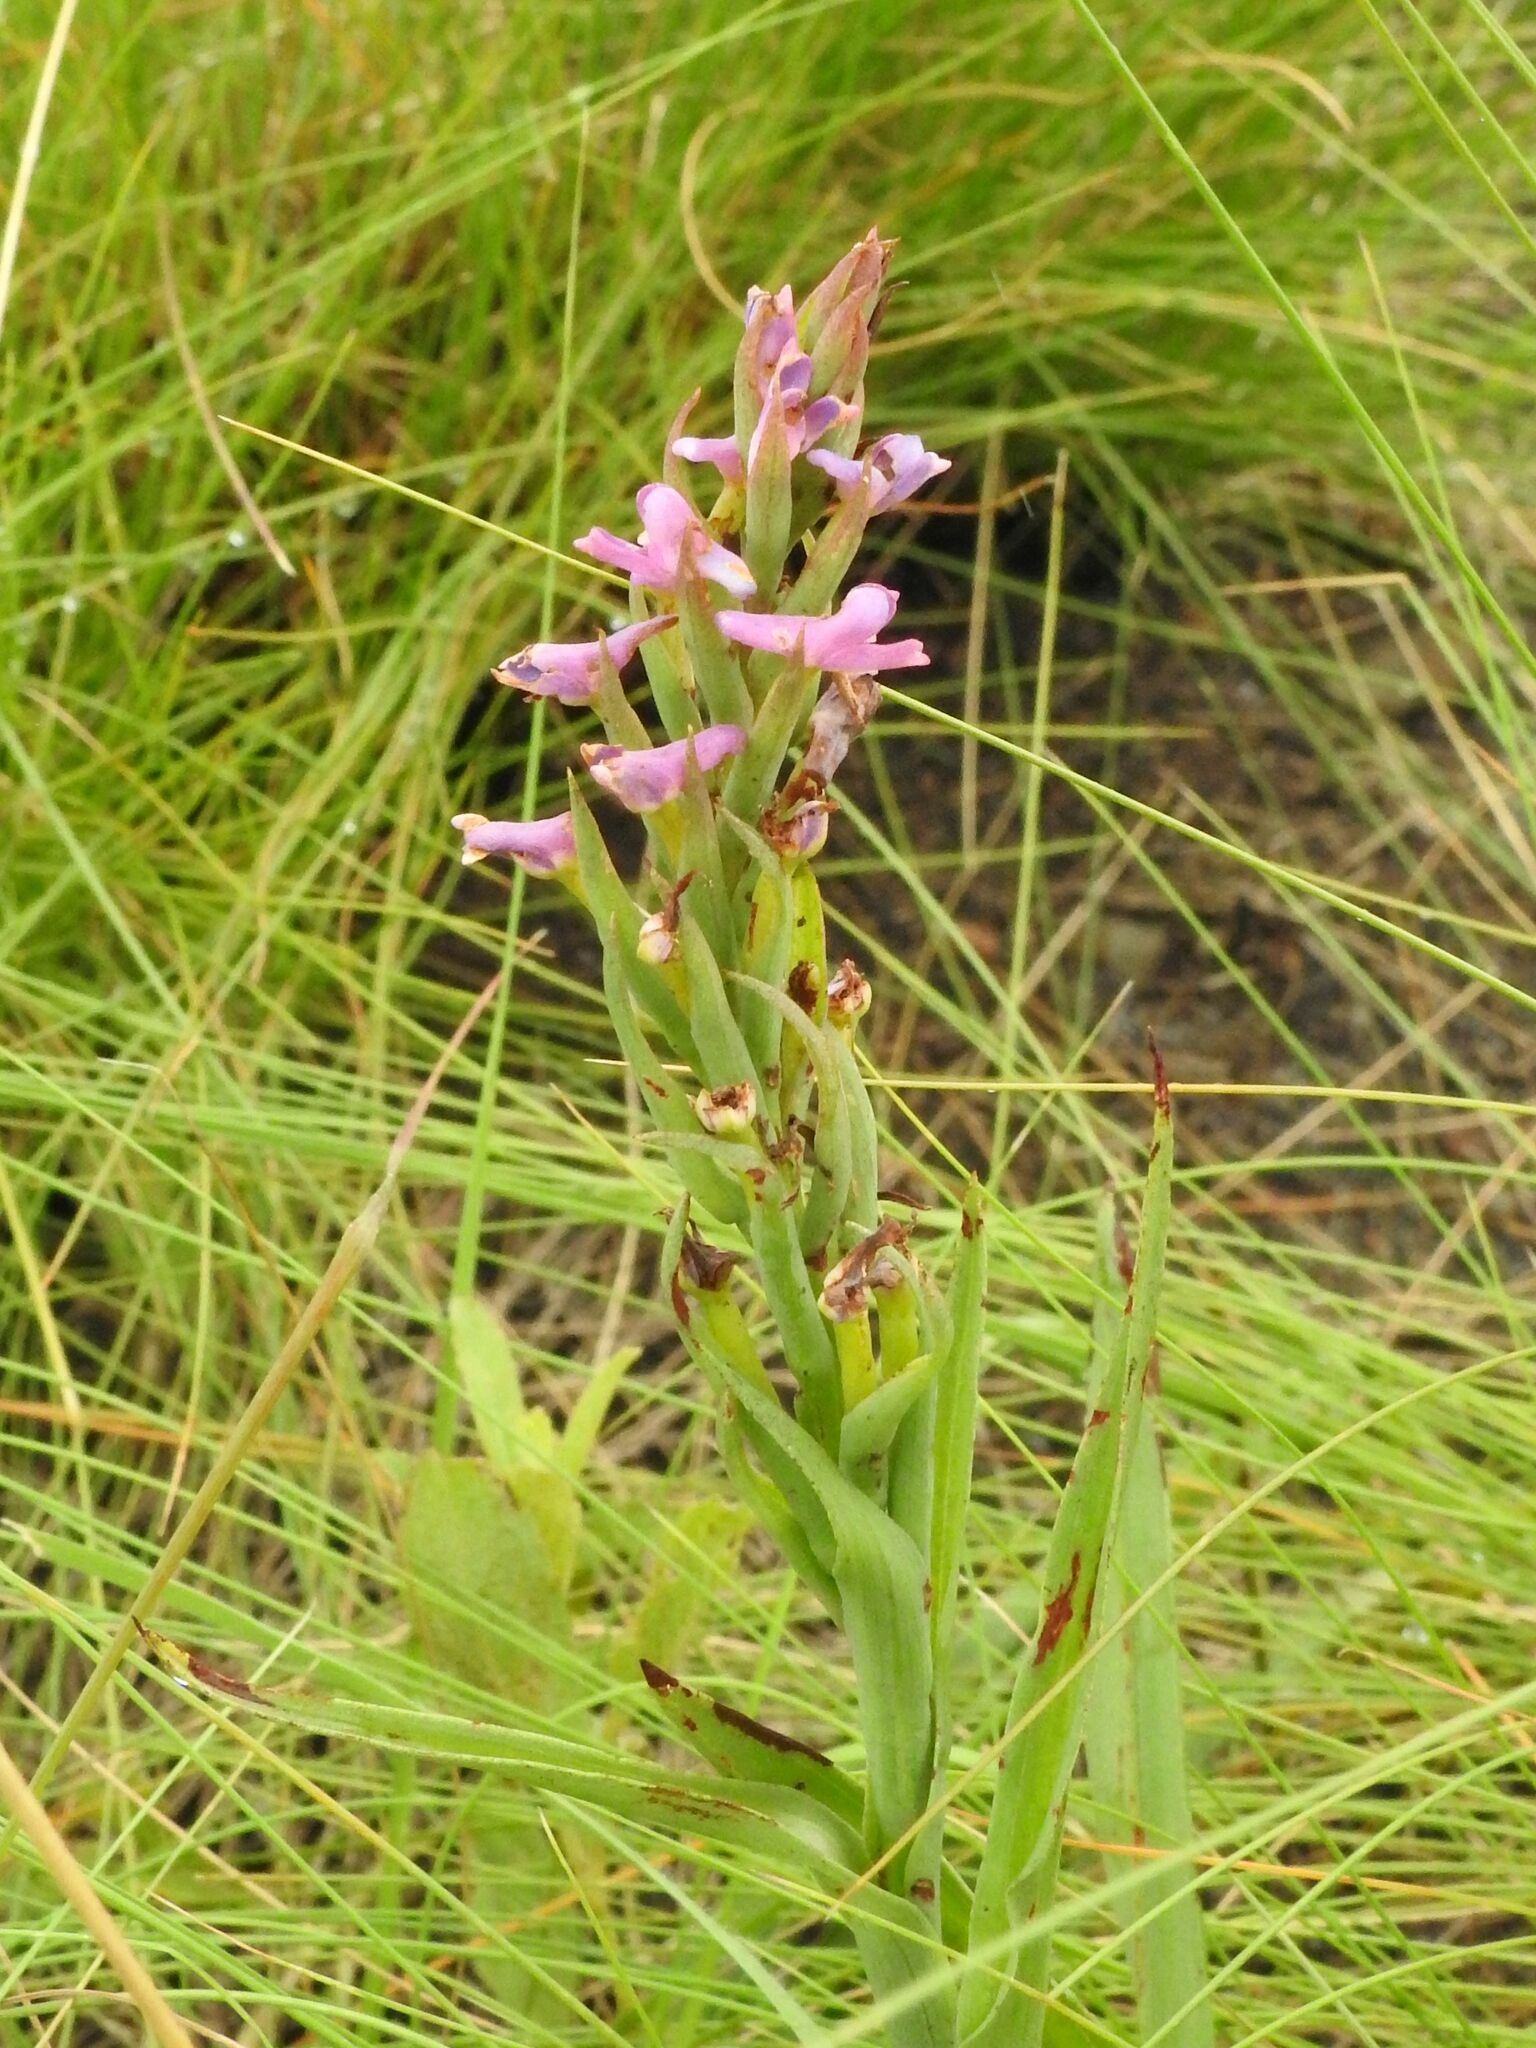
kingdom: Plantae
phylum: Tracheophyta
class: Liliopsida
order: Asparagales
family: Orchidaceae
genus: Disa
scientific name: Disa stachyoides
